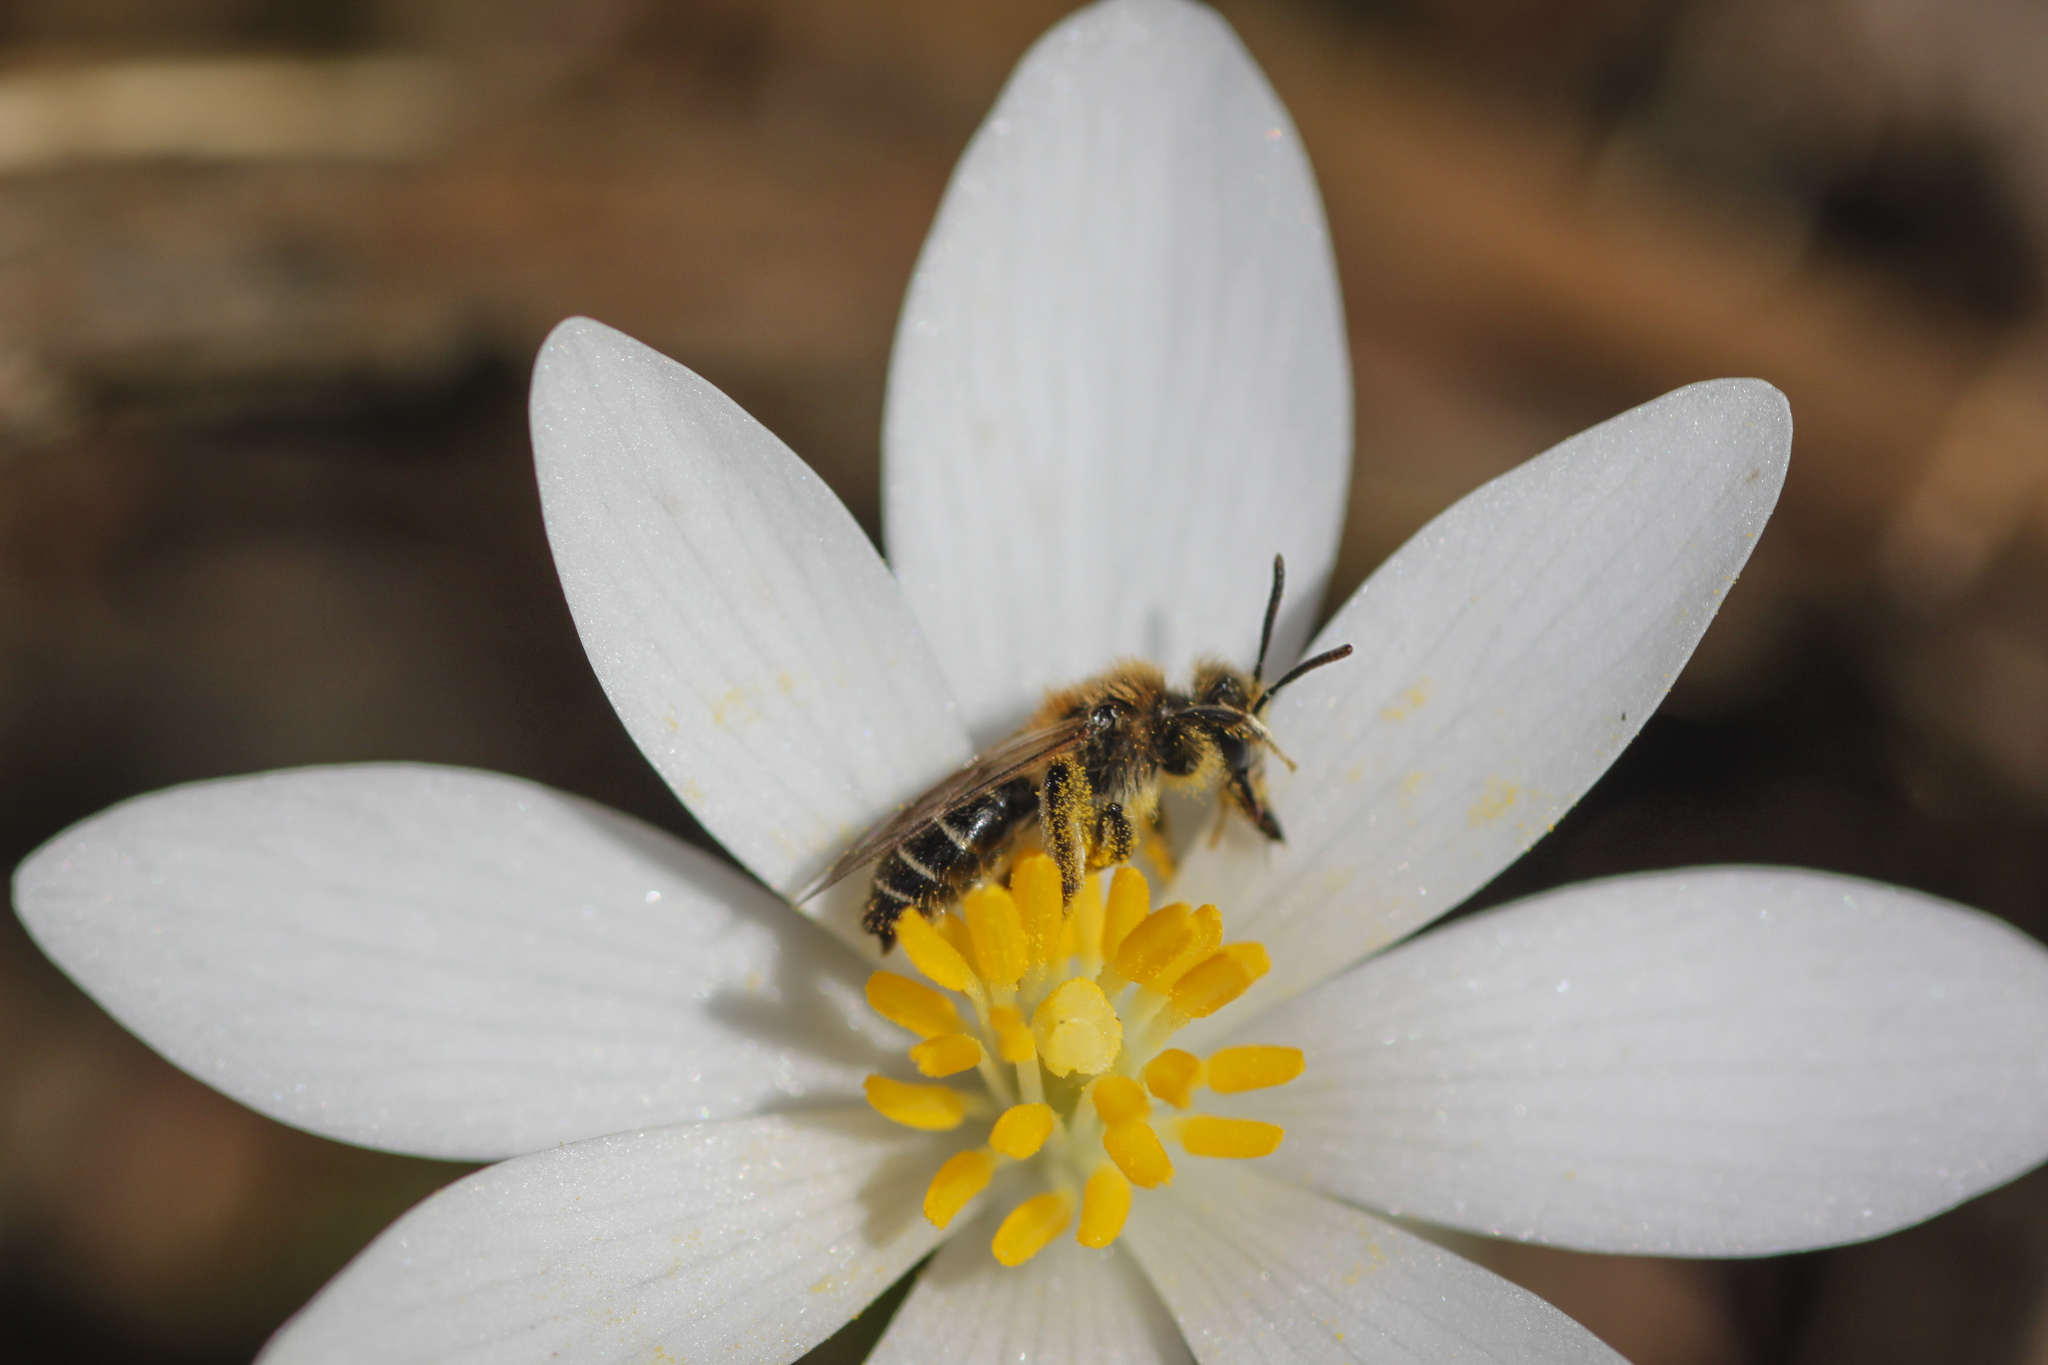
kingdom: Animalia
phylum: Arthropoda
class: Insecta
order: Hymenoptera
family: Andrenidae
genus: Andrena
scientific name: Andrena
